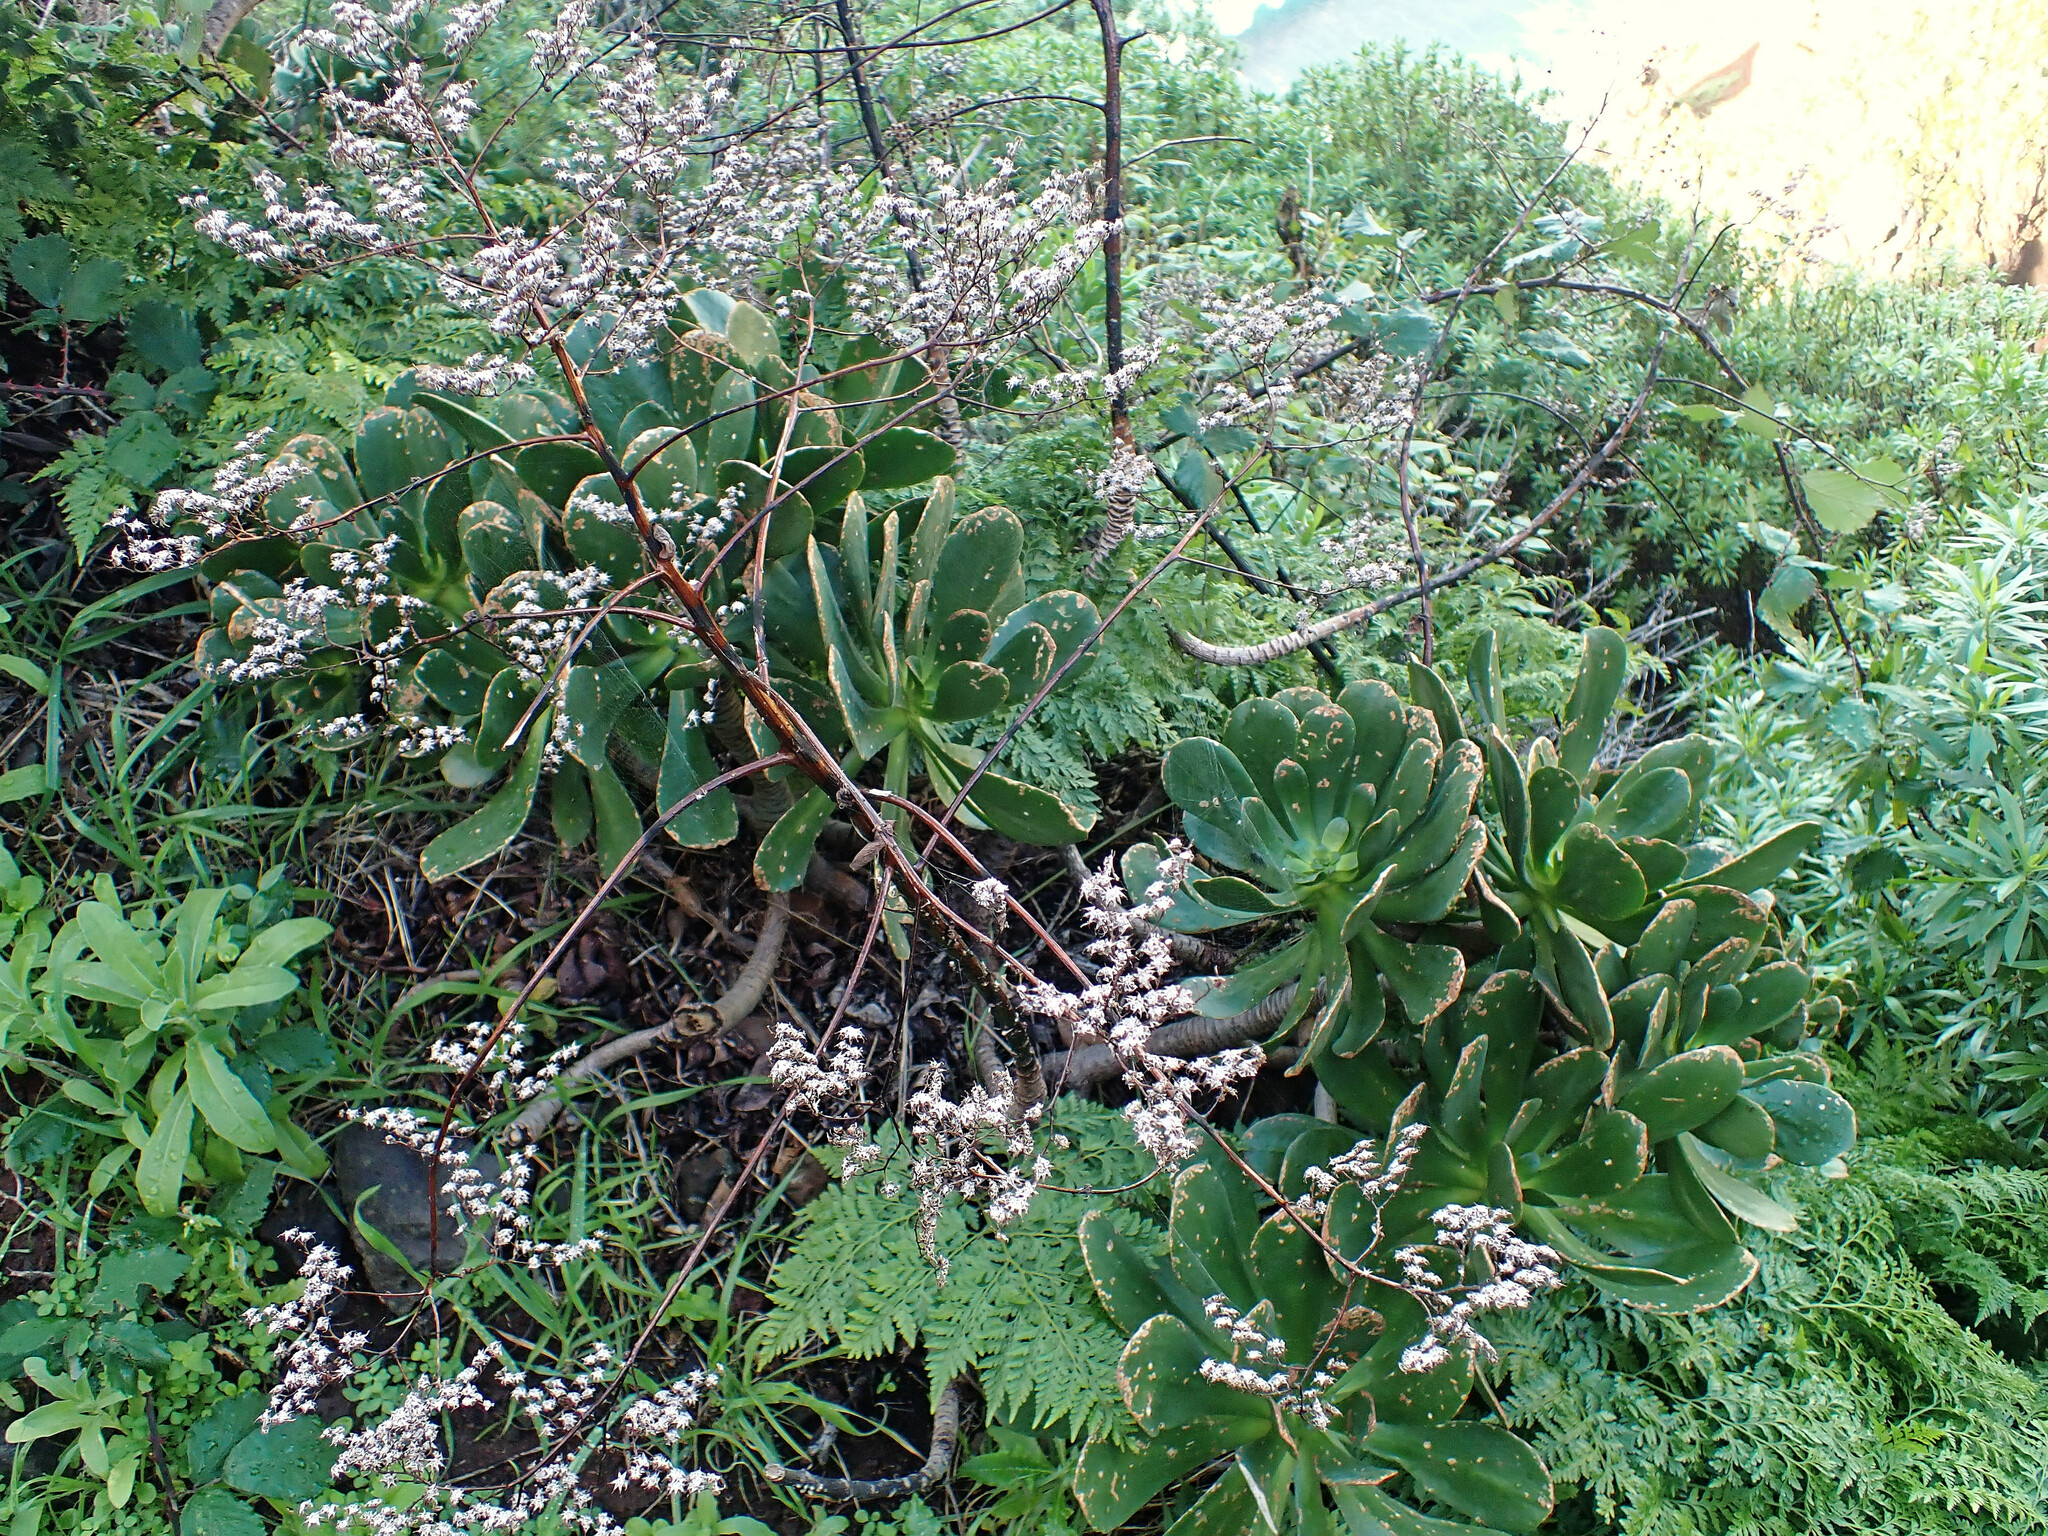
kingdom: Plantae
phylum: Tracheophyta
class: Magnoliopsida
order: Saxifragales
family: Crassulaceae
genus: Aeonium
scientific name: Aeonium glutinosum
